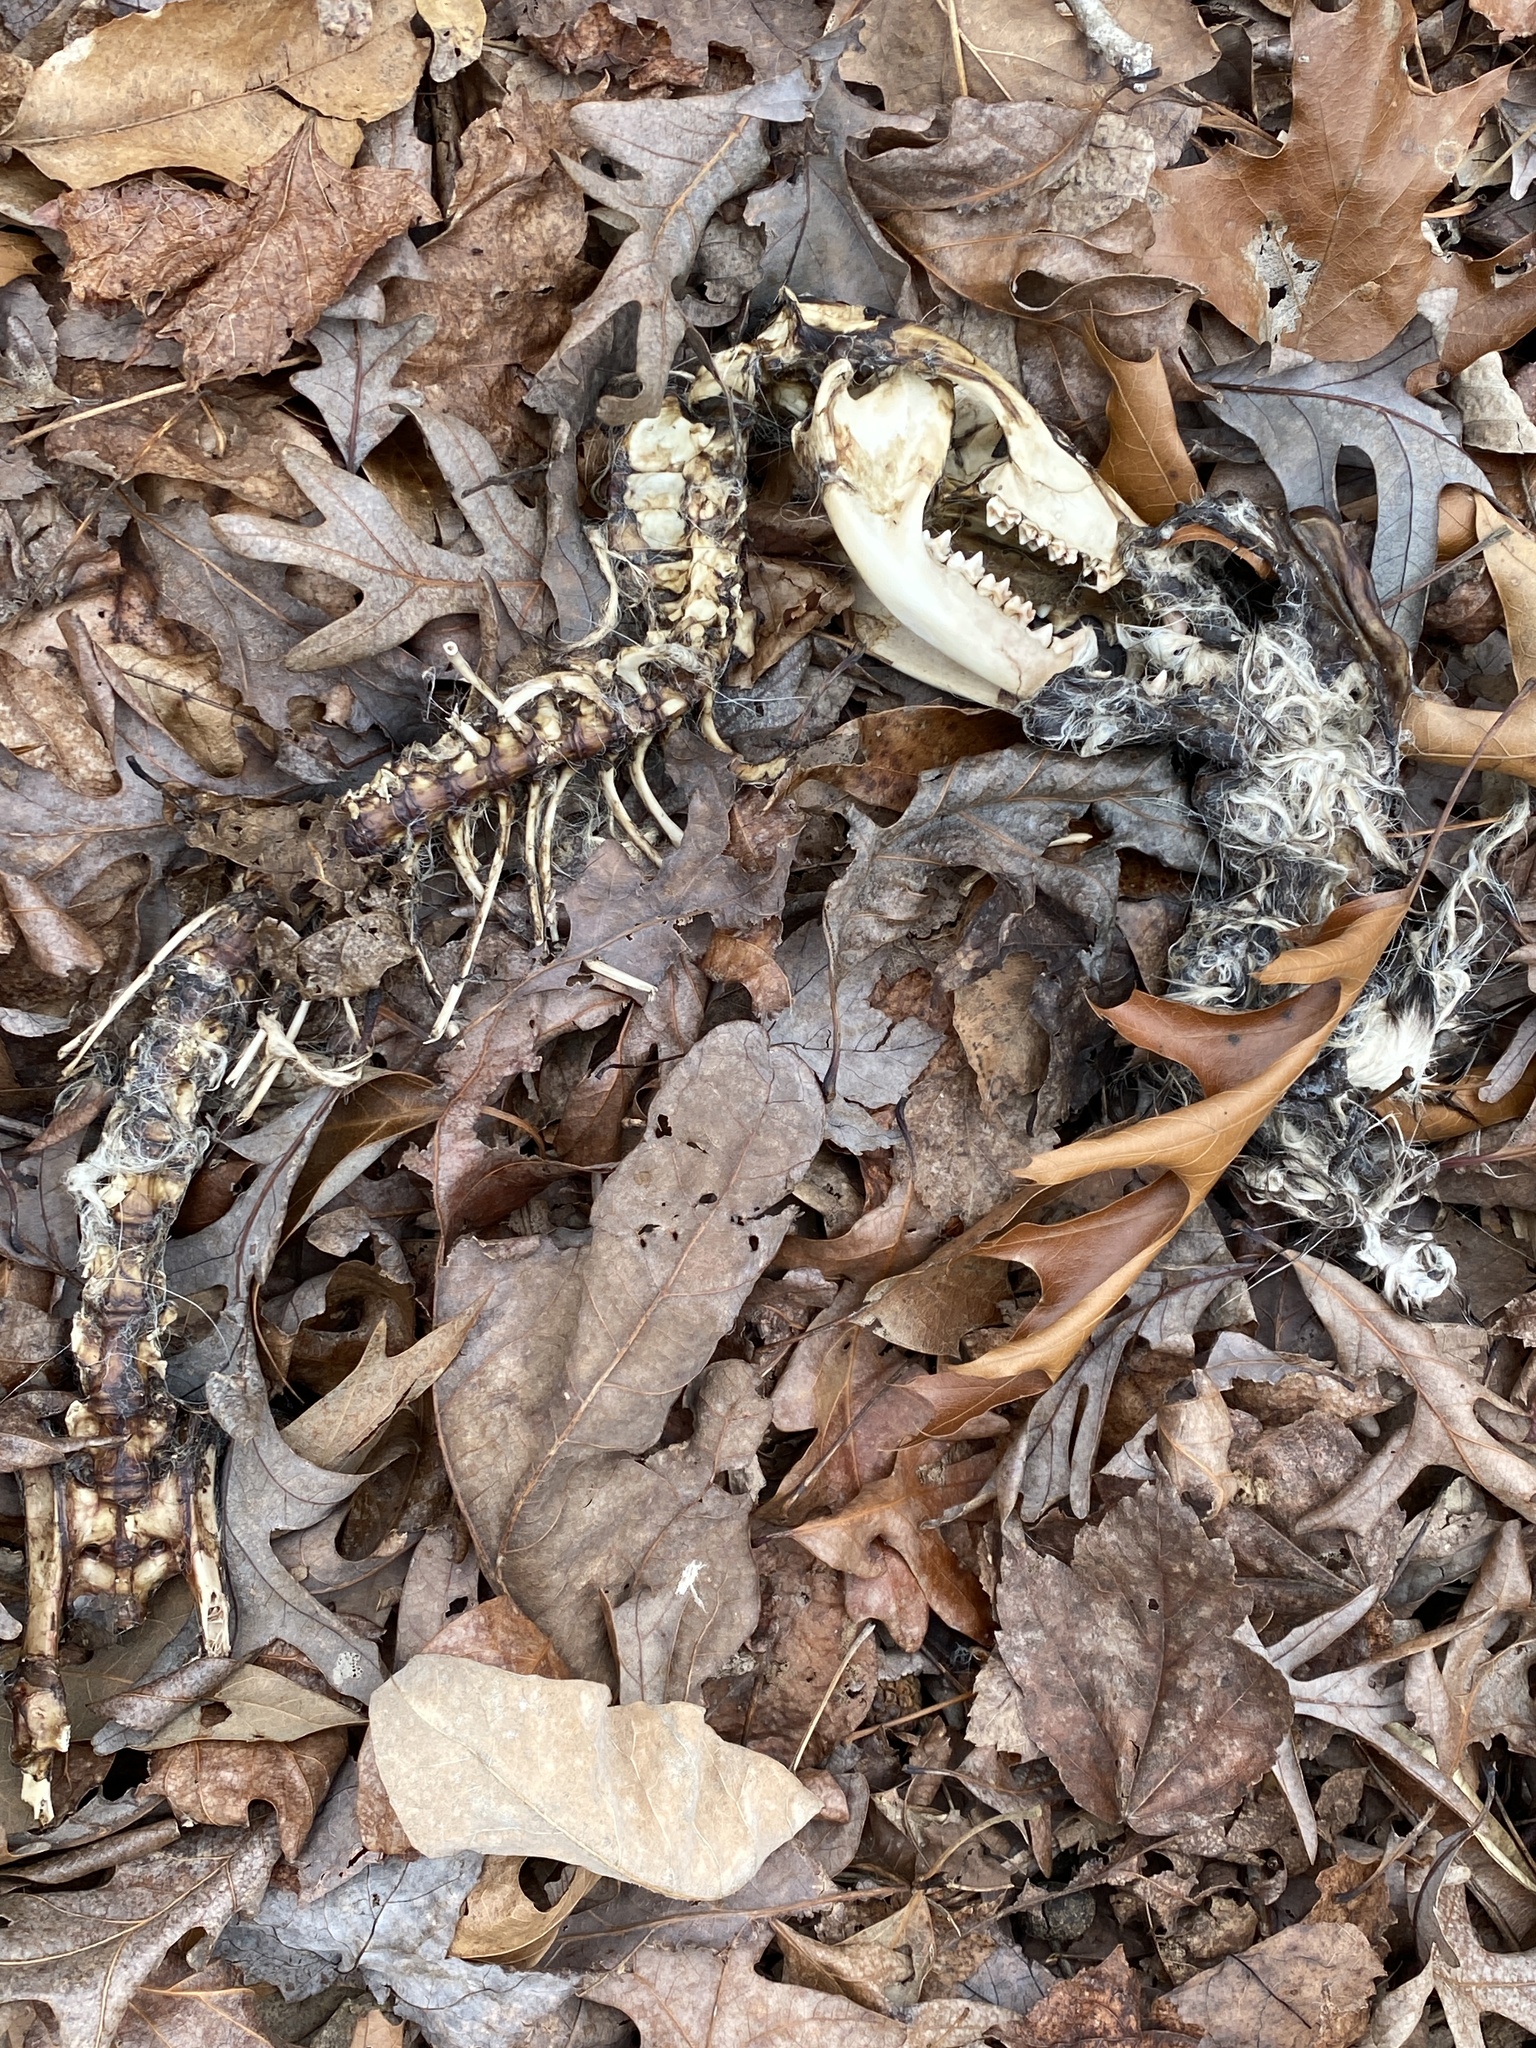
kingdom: Animalia
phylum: Chordata
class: Mammalia
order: Didelphimorphia
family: Didelphidae
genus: Didelphis
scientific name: Didelphis virginiana
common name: Virginia opossum
